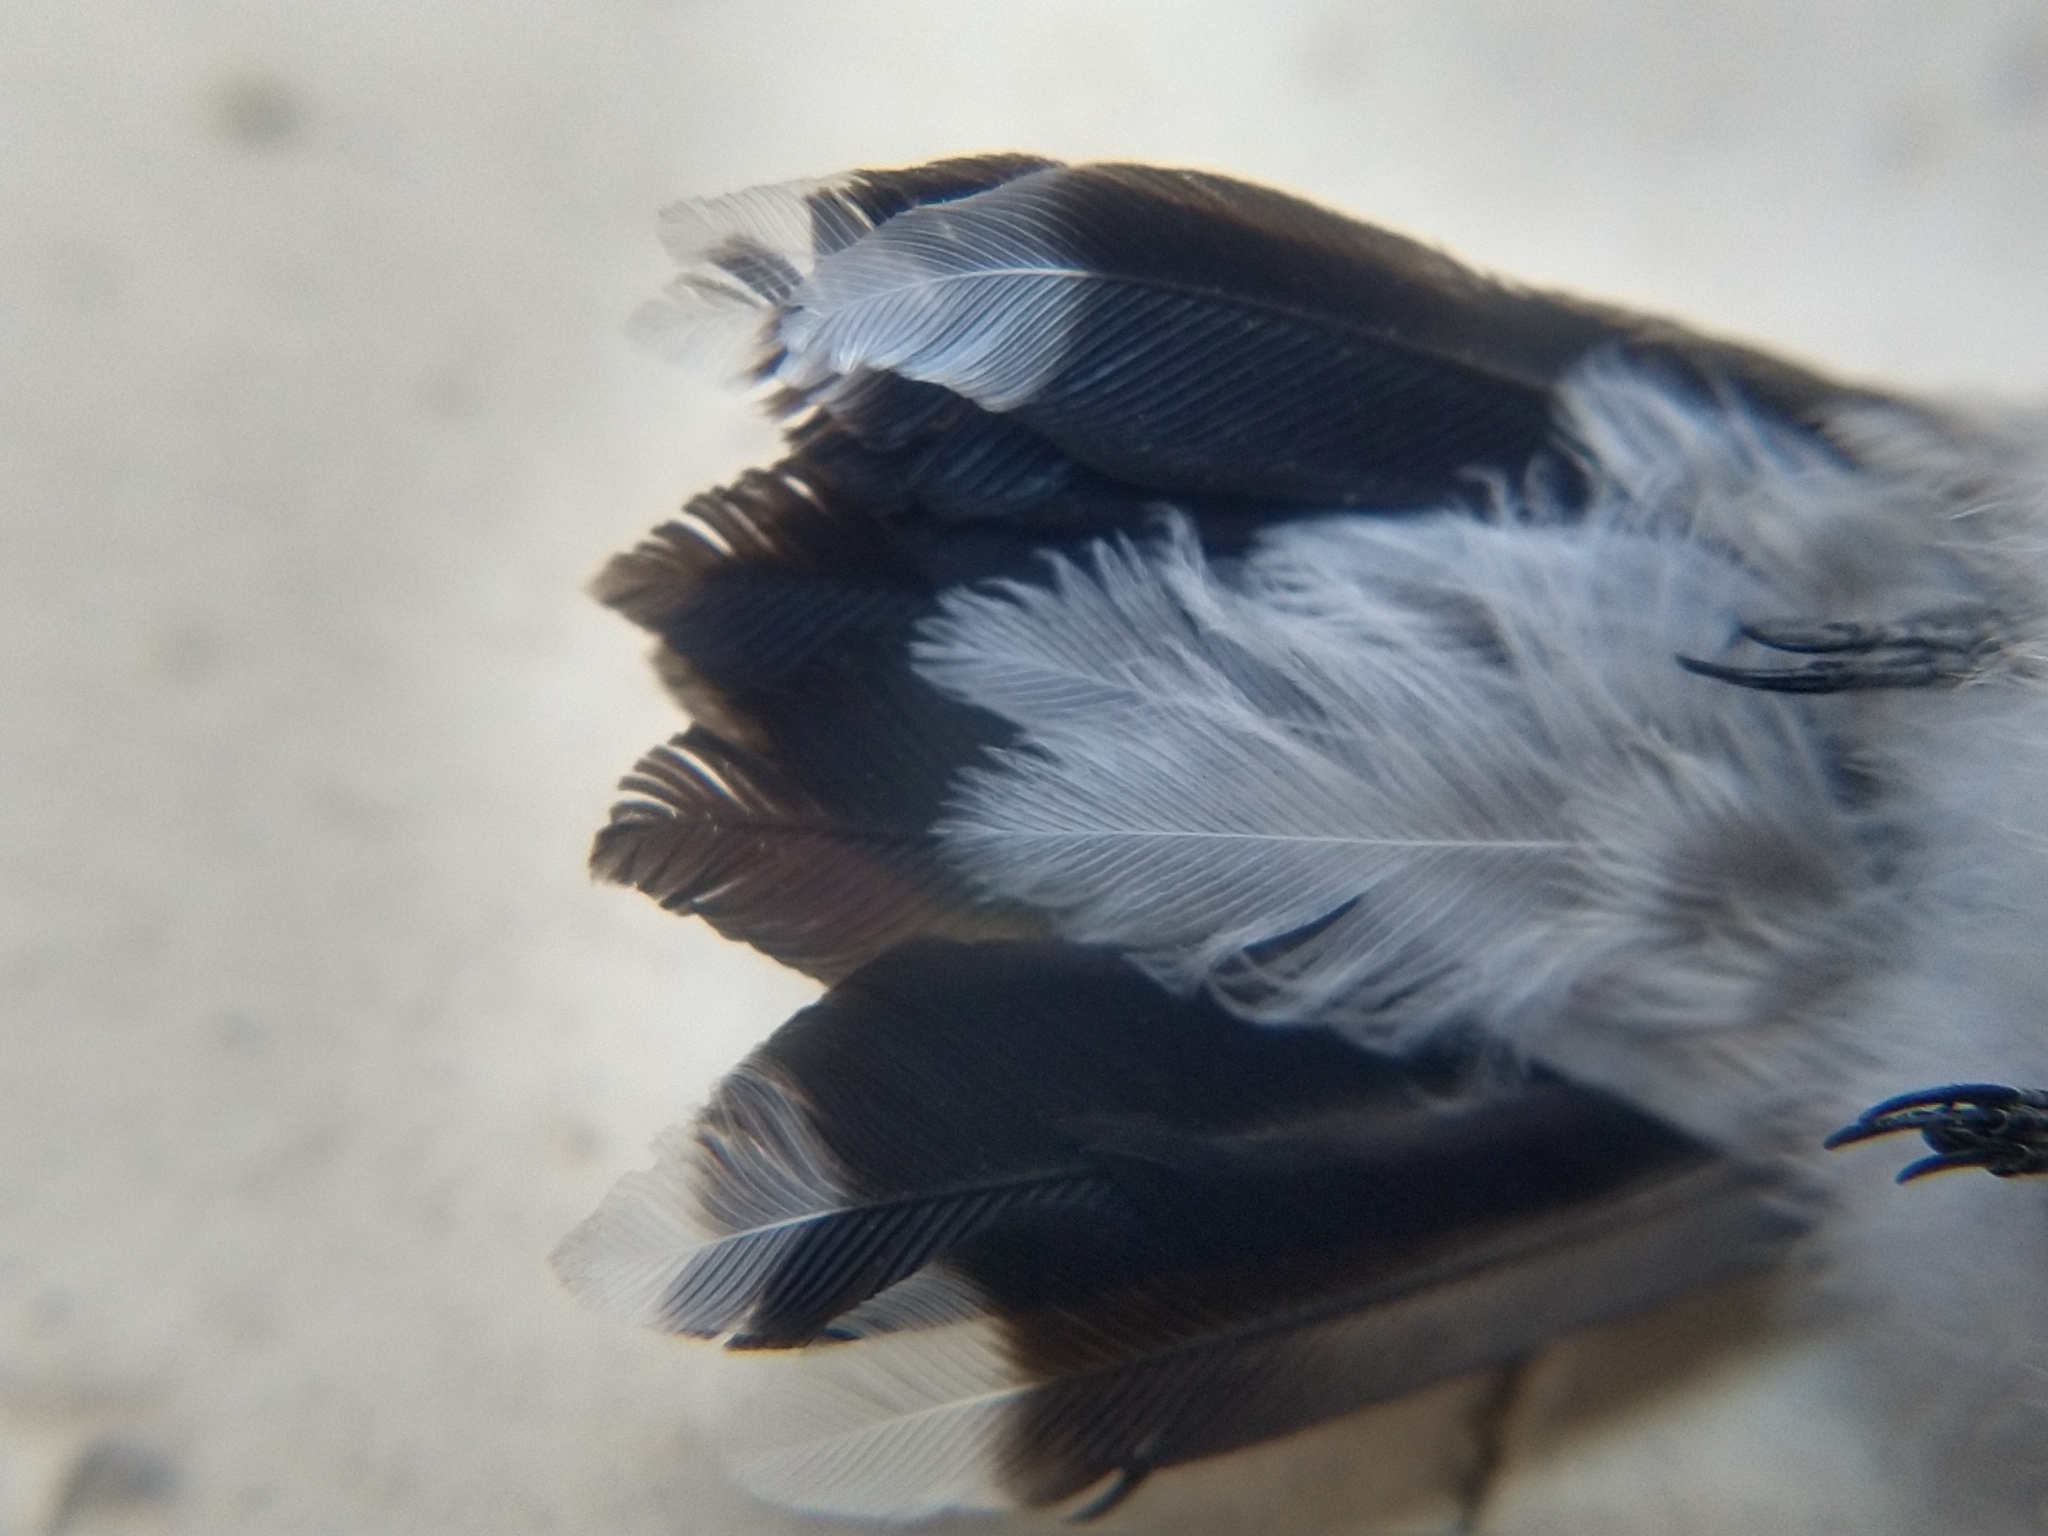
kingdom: Animalia
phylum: Chordata
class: Aves
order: Apodiformes
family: Trochilidae
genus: Archilochus
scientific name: Archilochus alexandri
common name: Black-chinned hummingbird
